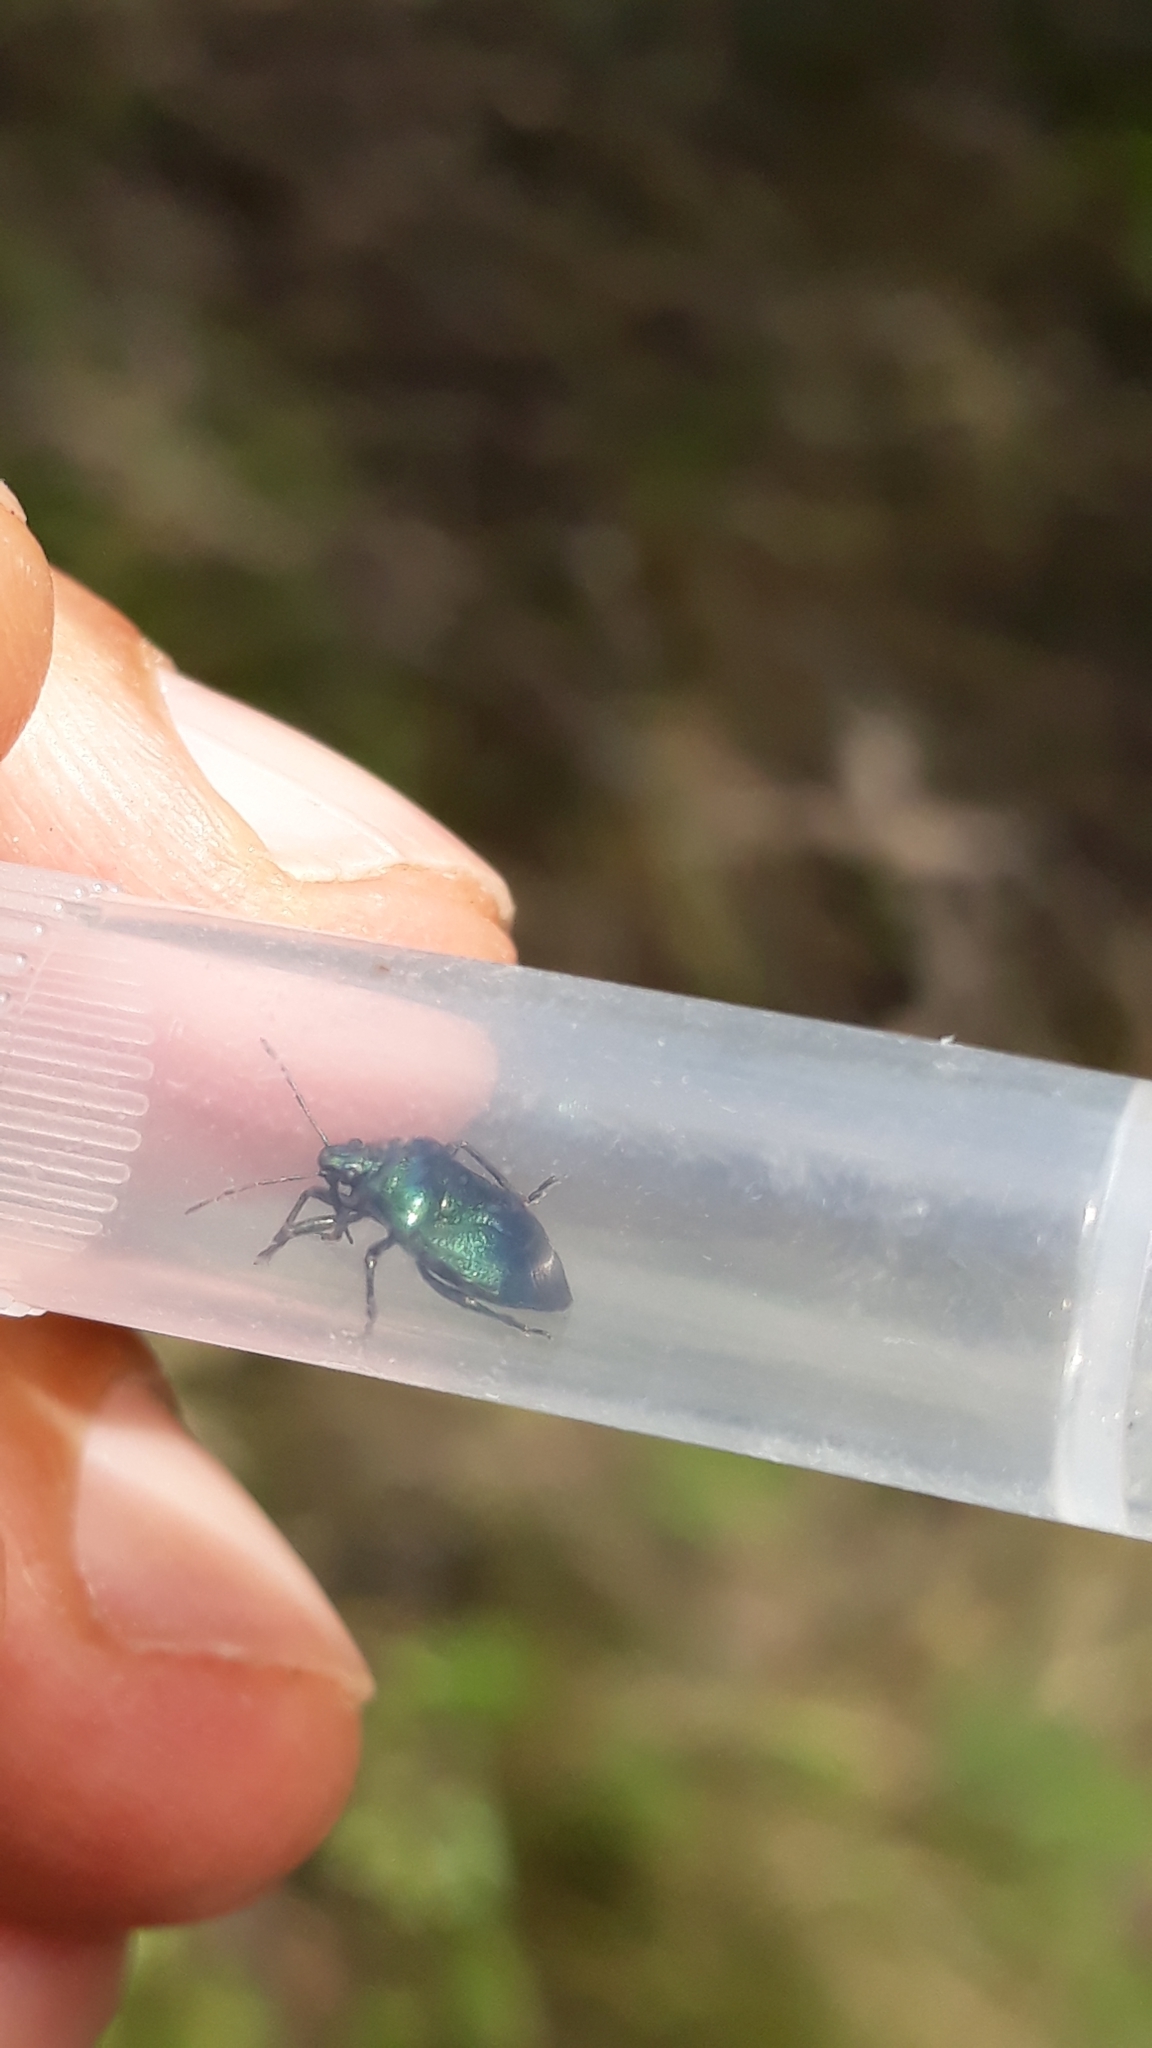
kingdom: Animalia
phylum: Arthropoda
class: Insecta
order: Hemiptera
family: Pentatomidae
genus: Zicrona
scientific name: Zicrona caerulea
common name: Blue shieldbug
